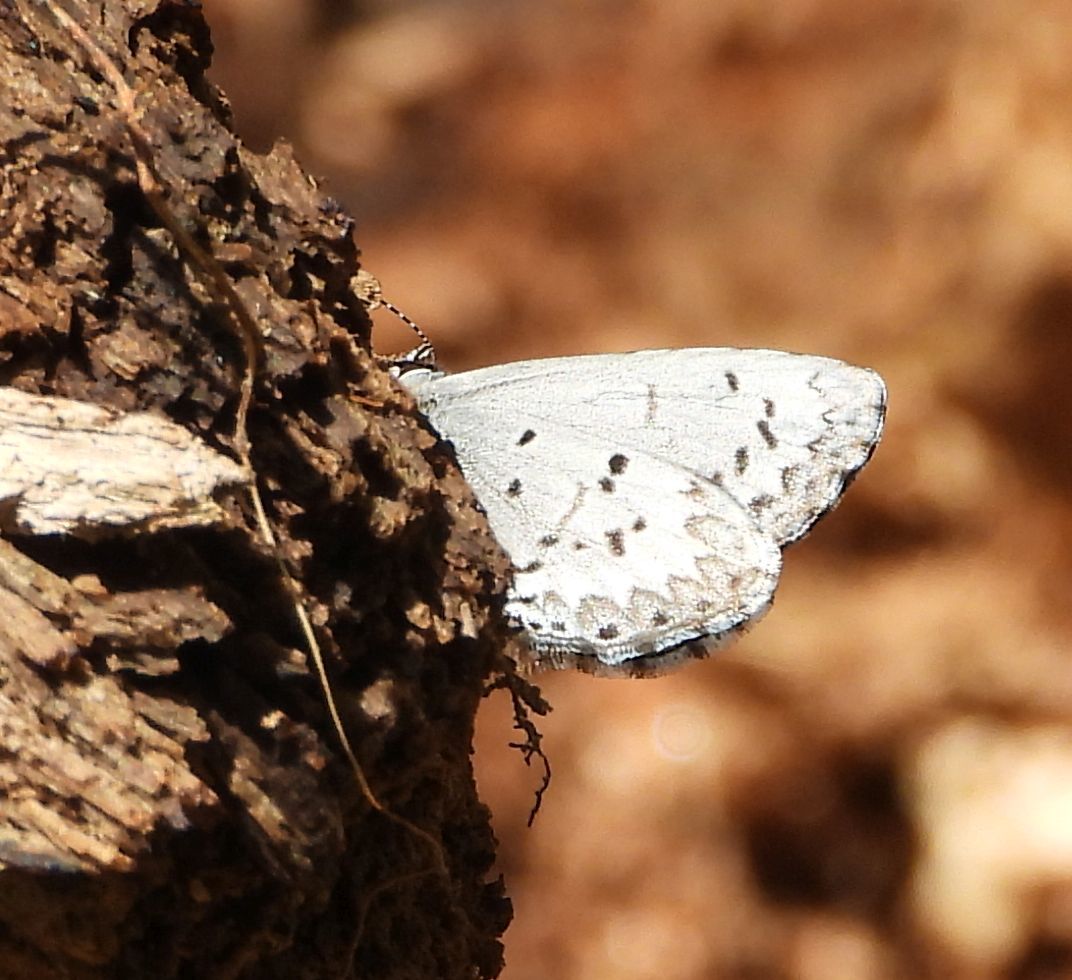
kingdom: Animalia
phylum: Arthropoda
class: Insecta
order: Lepidoptera
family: Lycaenidae
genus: Celastrina
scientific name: Celastrina lucia
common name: Lucia azure
